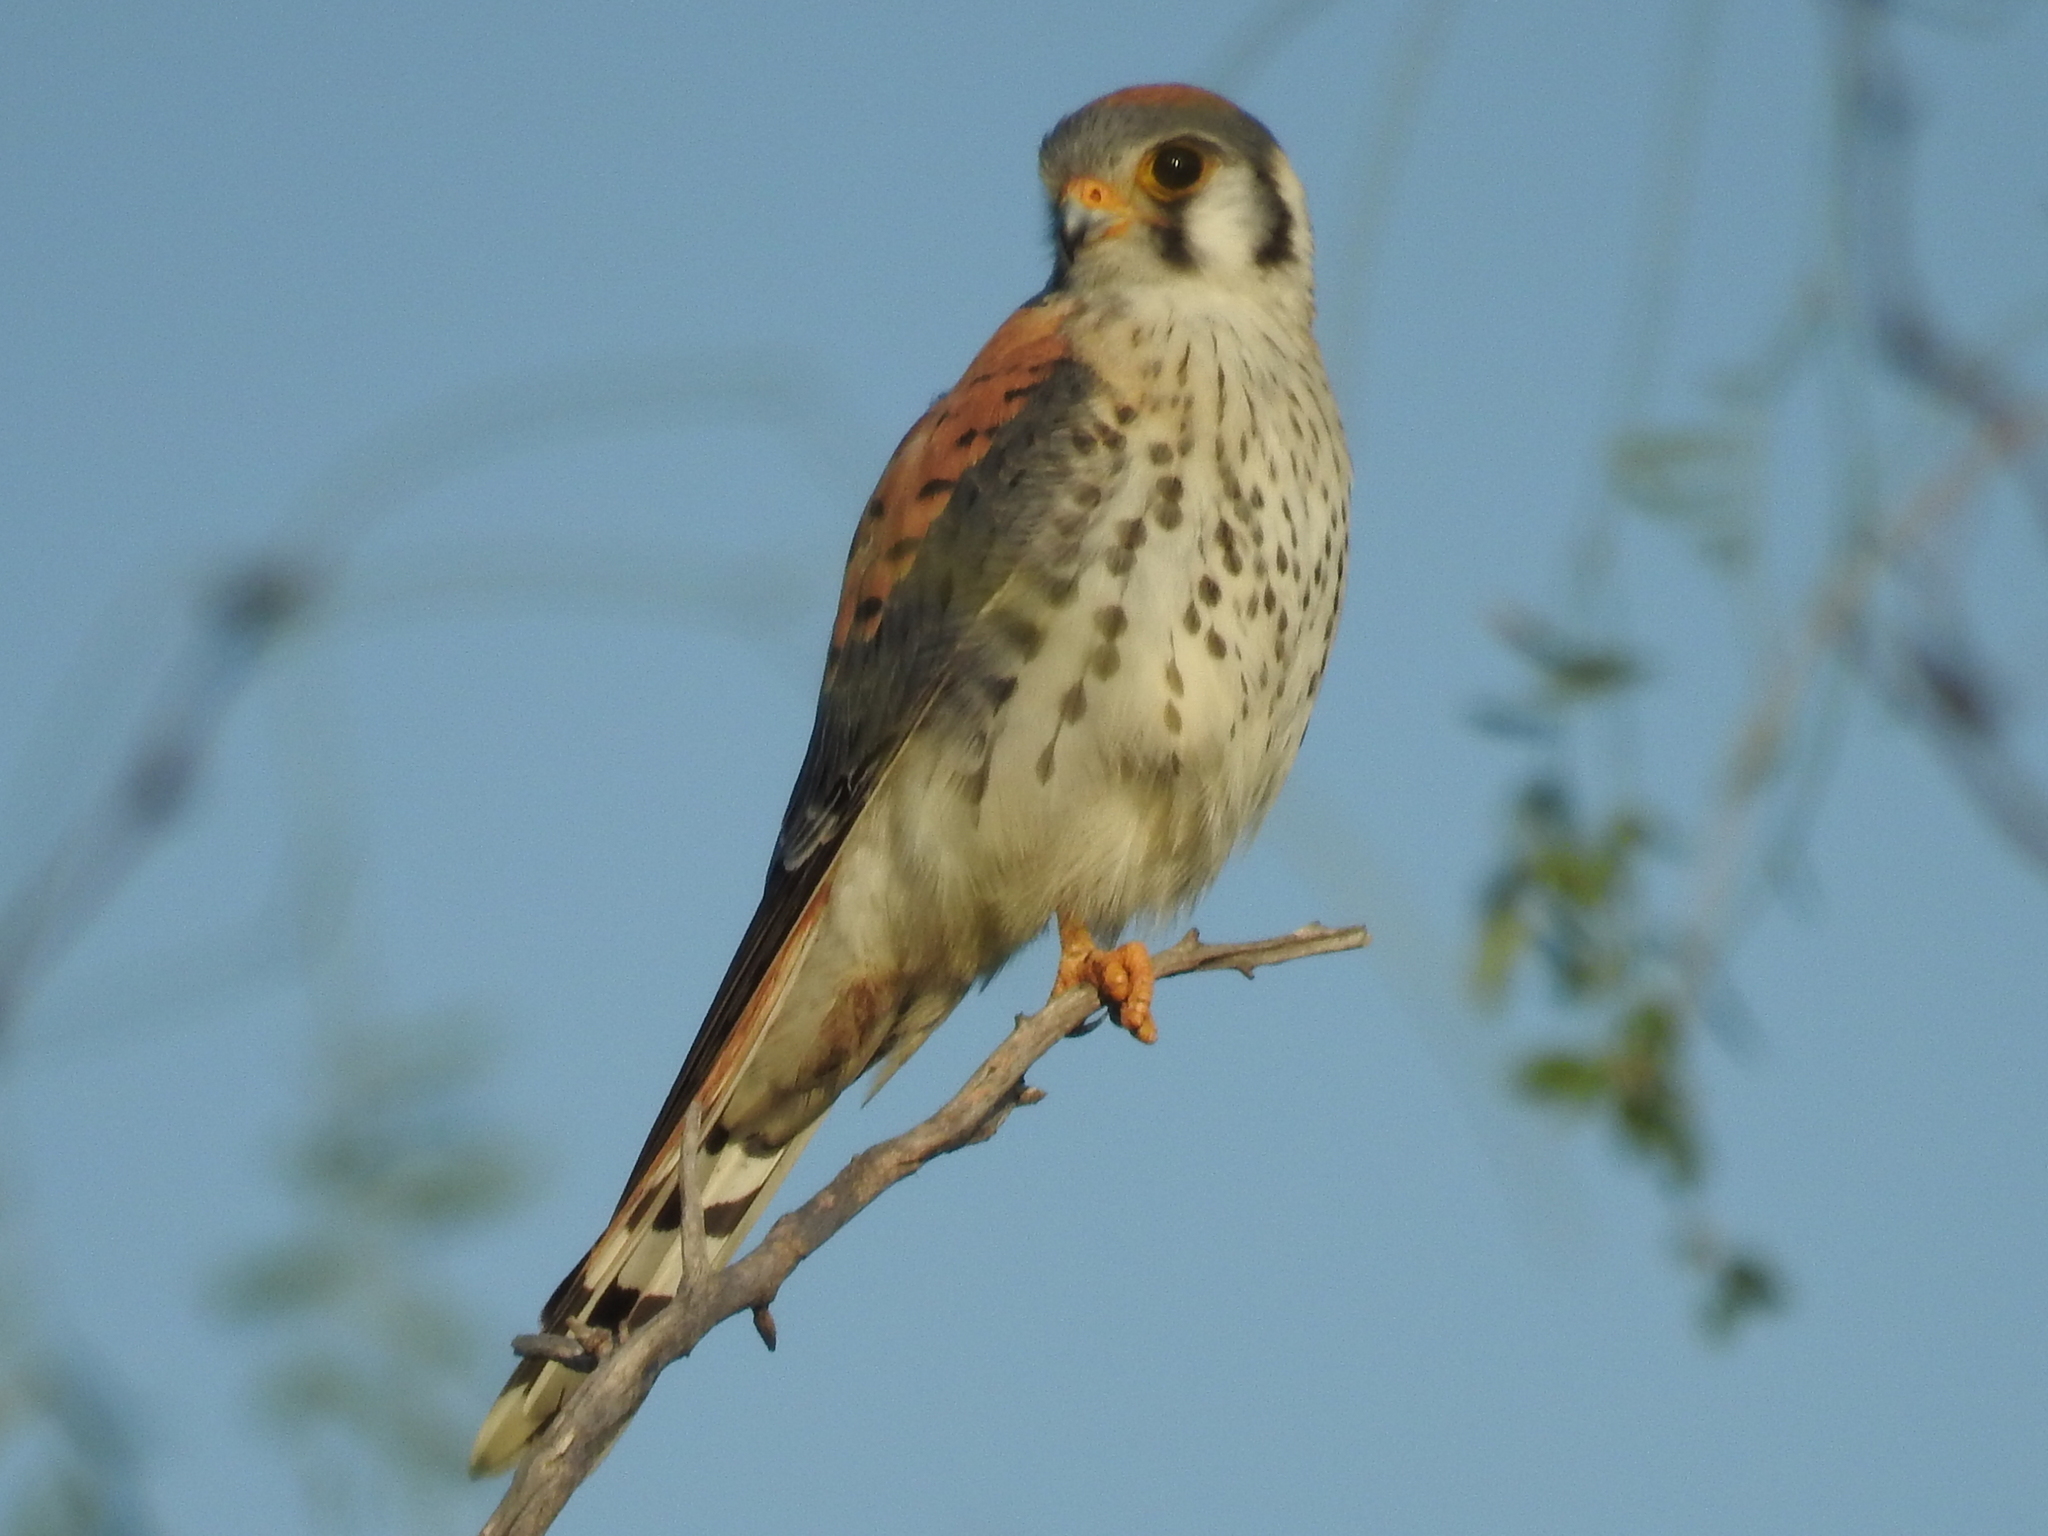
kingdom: Animalia
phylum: Chordata
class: Aves
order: Falconiformes
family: Falconidae
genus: Falco
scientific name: Falco sparverius
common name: American kestrel
